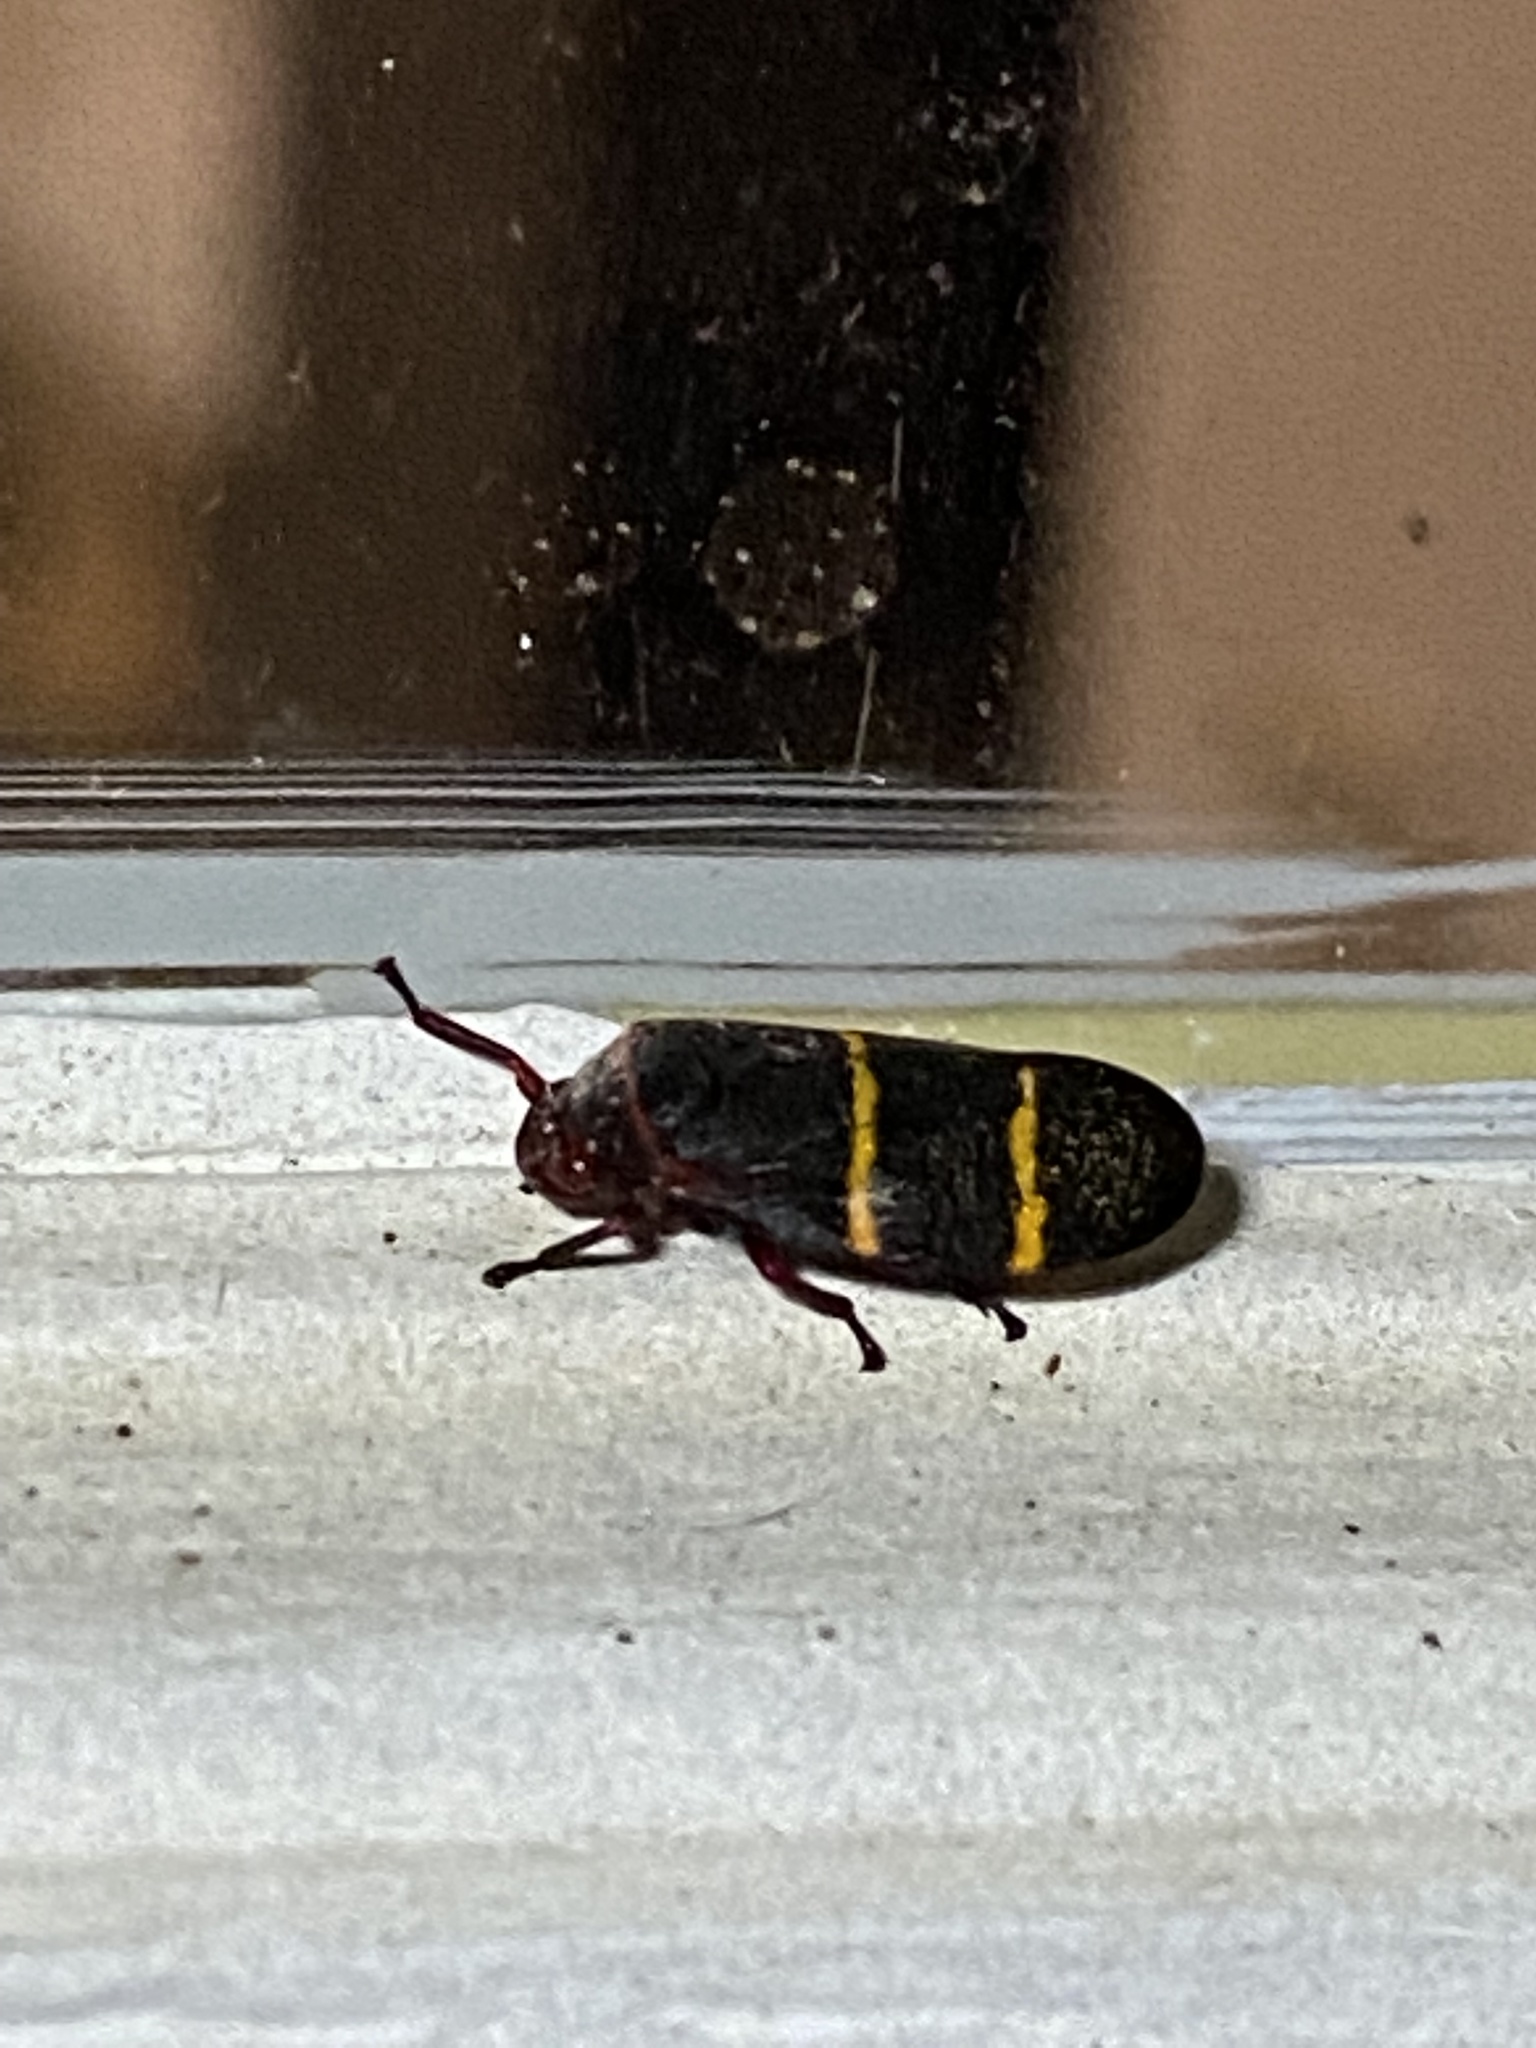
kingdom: Animalia
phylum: Arthropoda
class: Insecta
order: Hemiptera
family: Cercopidae
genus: Prosapia
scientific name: Prosapia bicincta
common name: Twolined spittlebug
